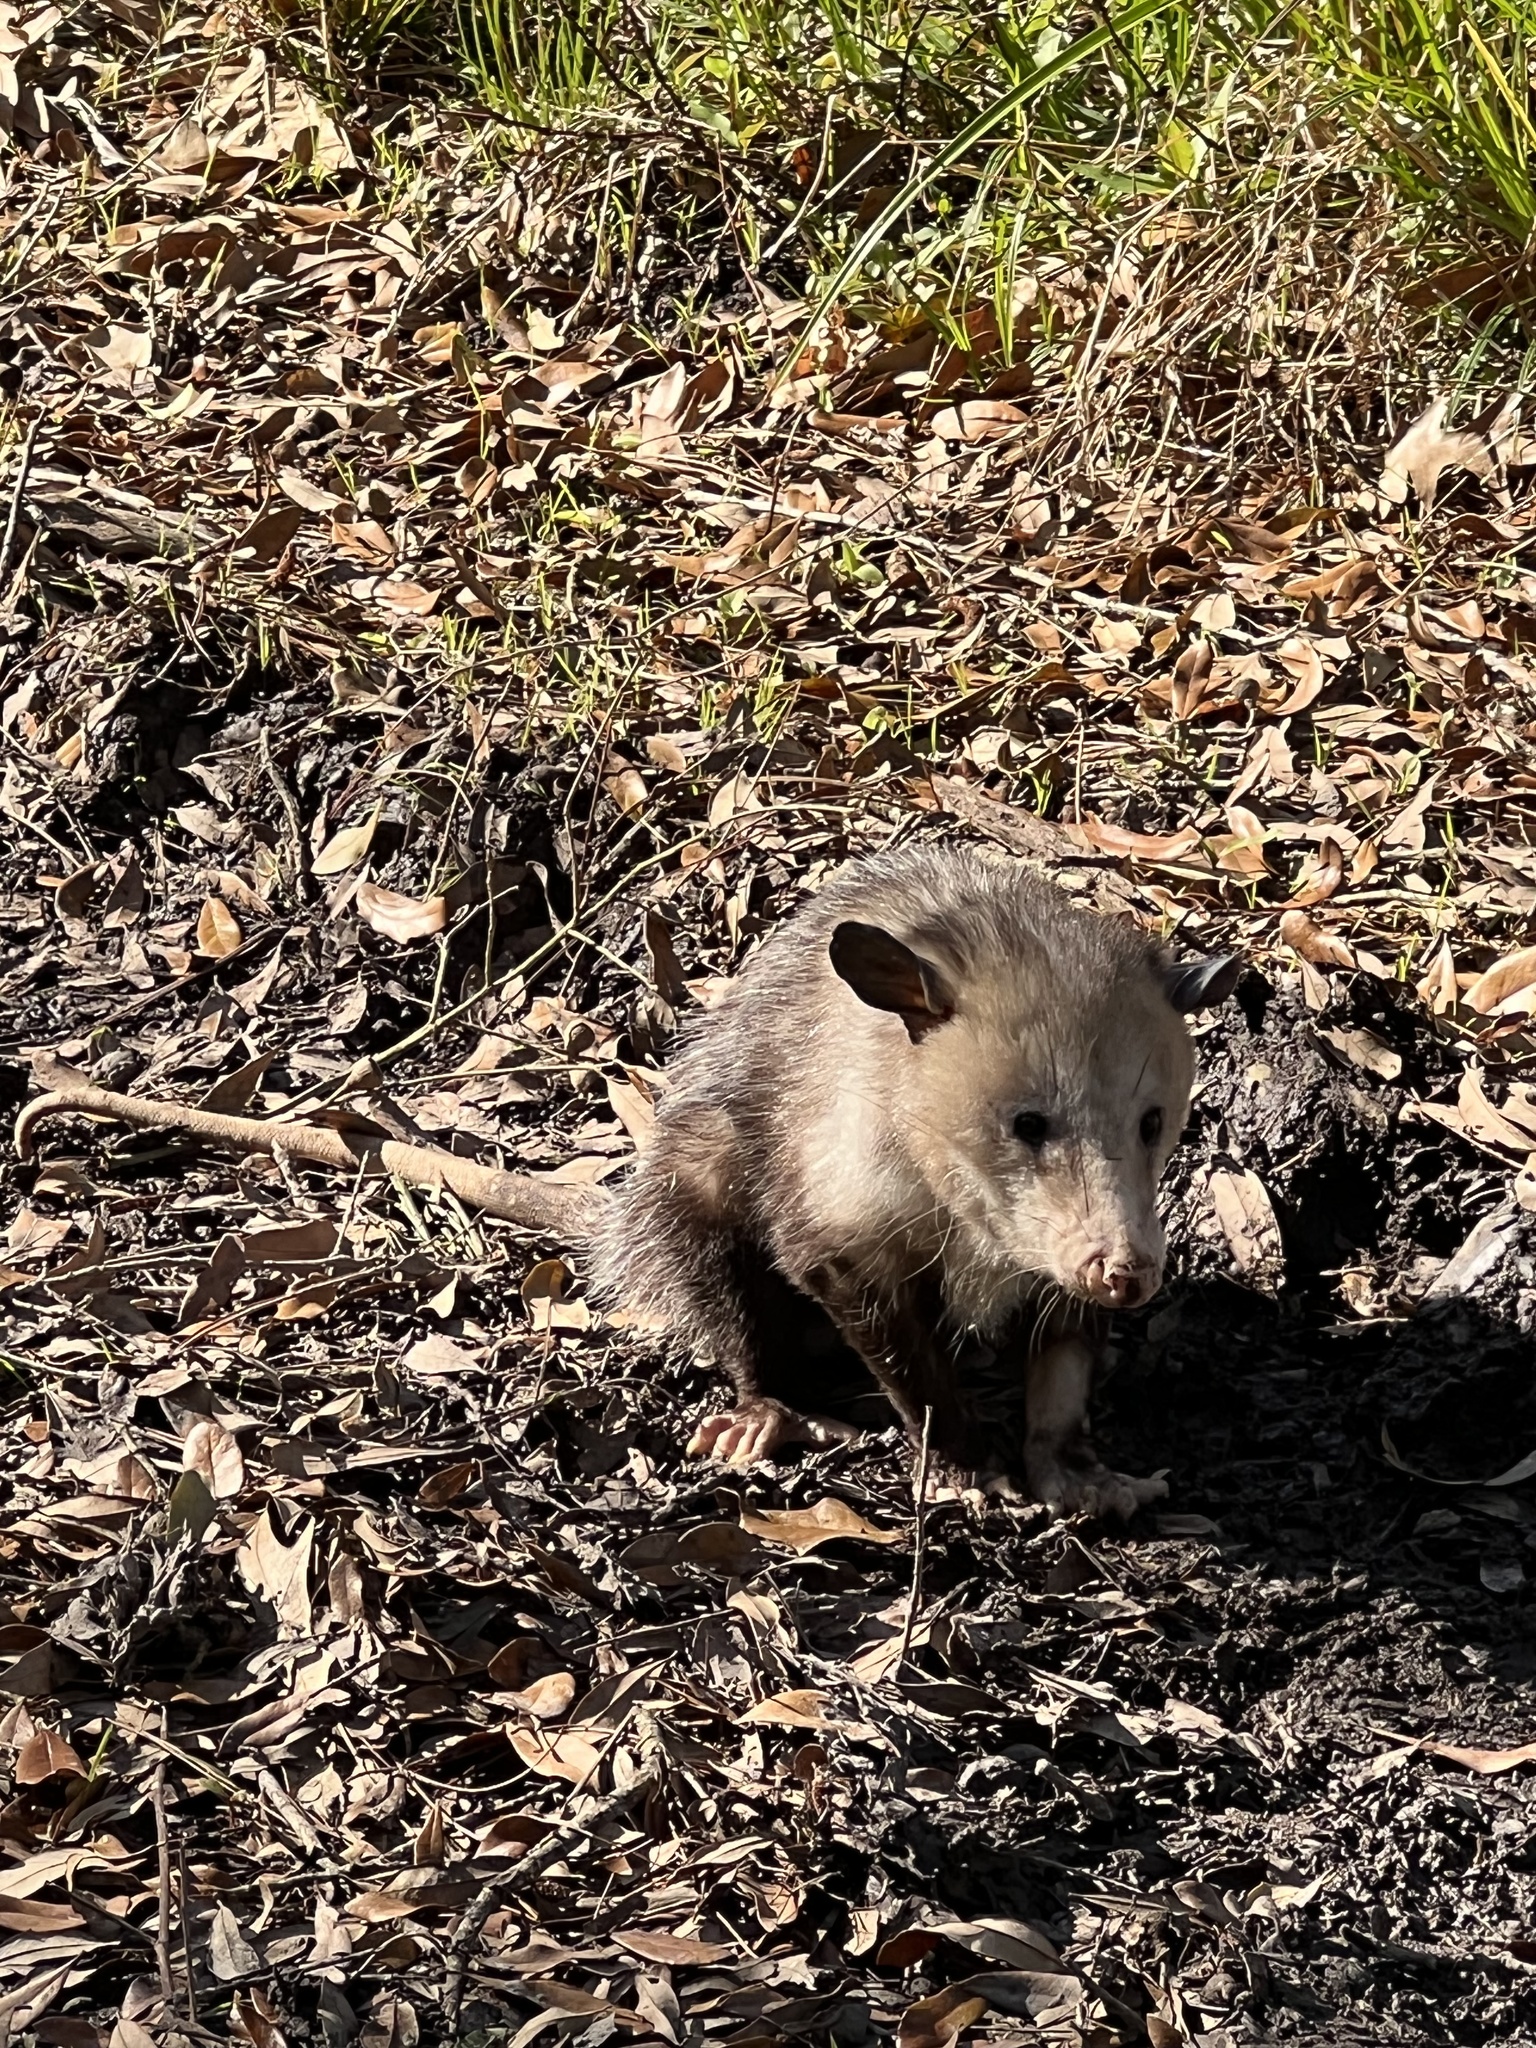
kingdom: Animalia
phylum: Chordata
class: Mammalia
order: Didelphimorphia
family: Didelphidae
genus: Didelphis
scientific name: Didelphis virginiana
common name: Virginia opossum
